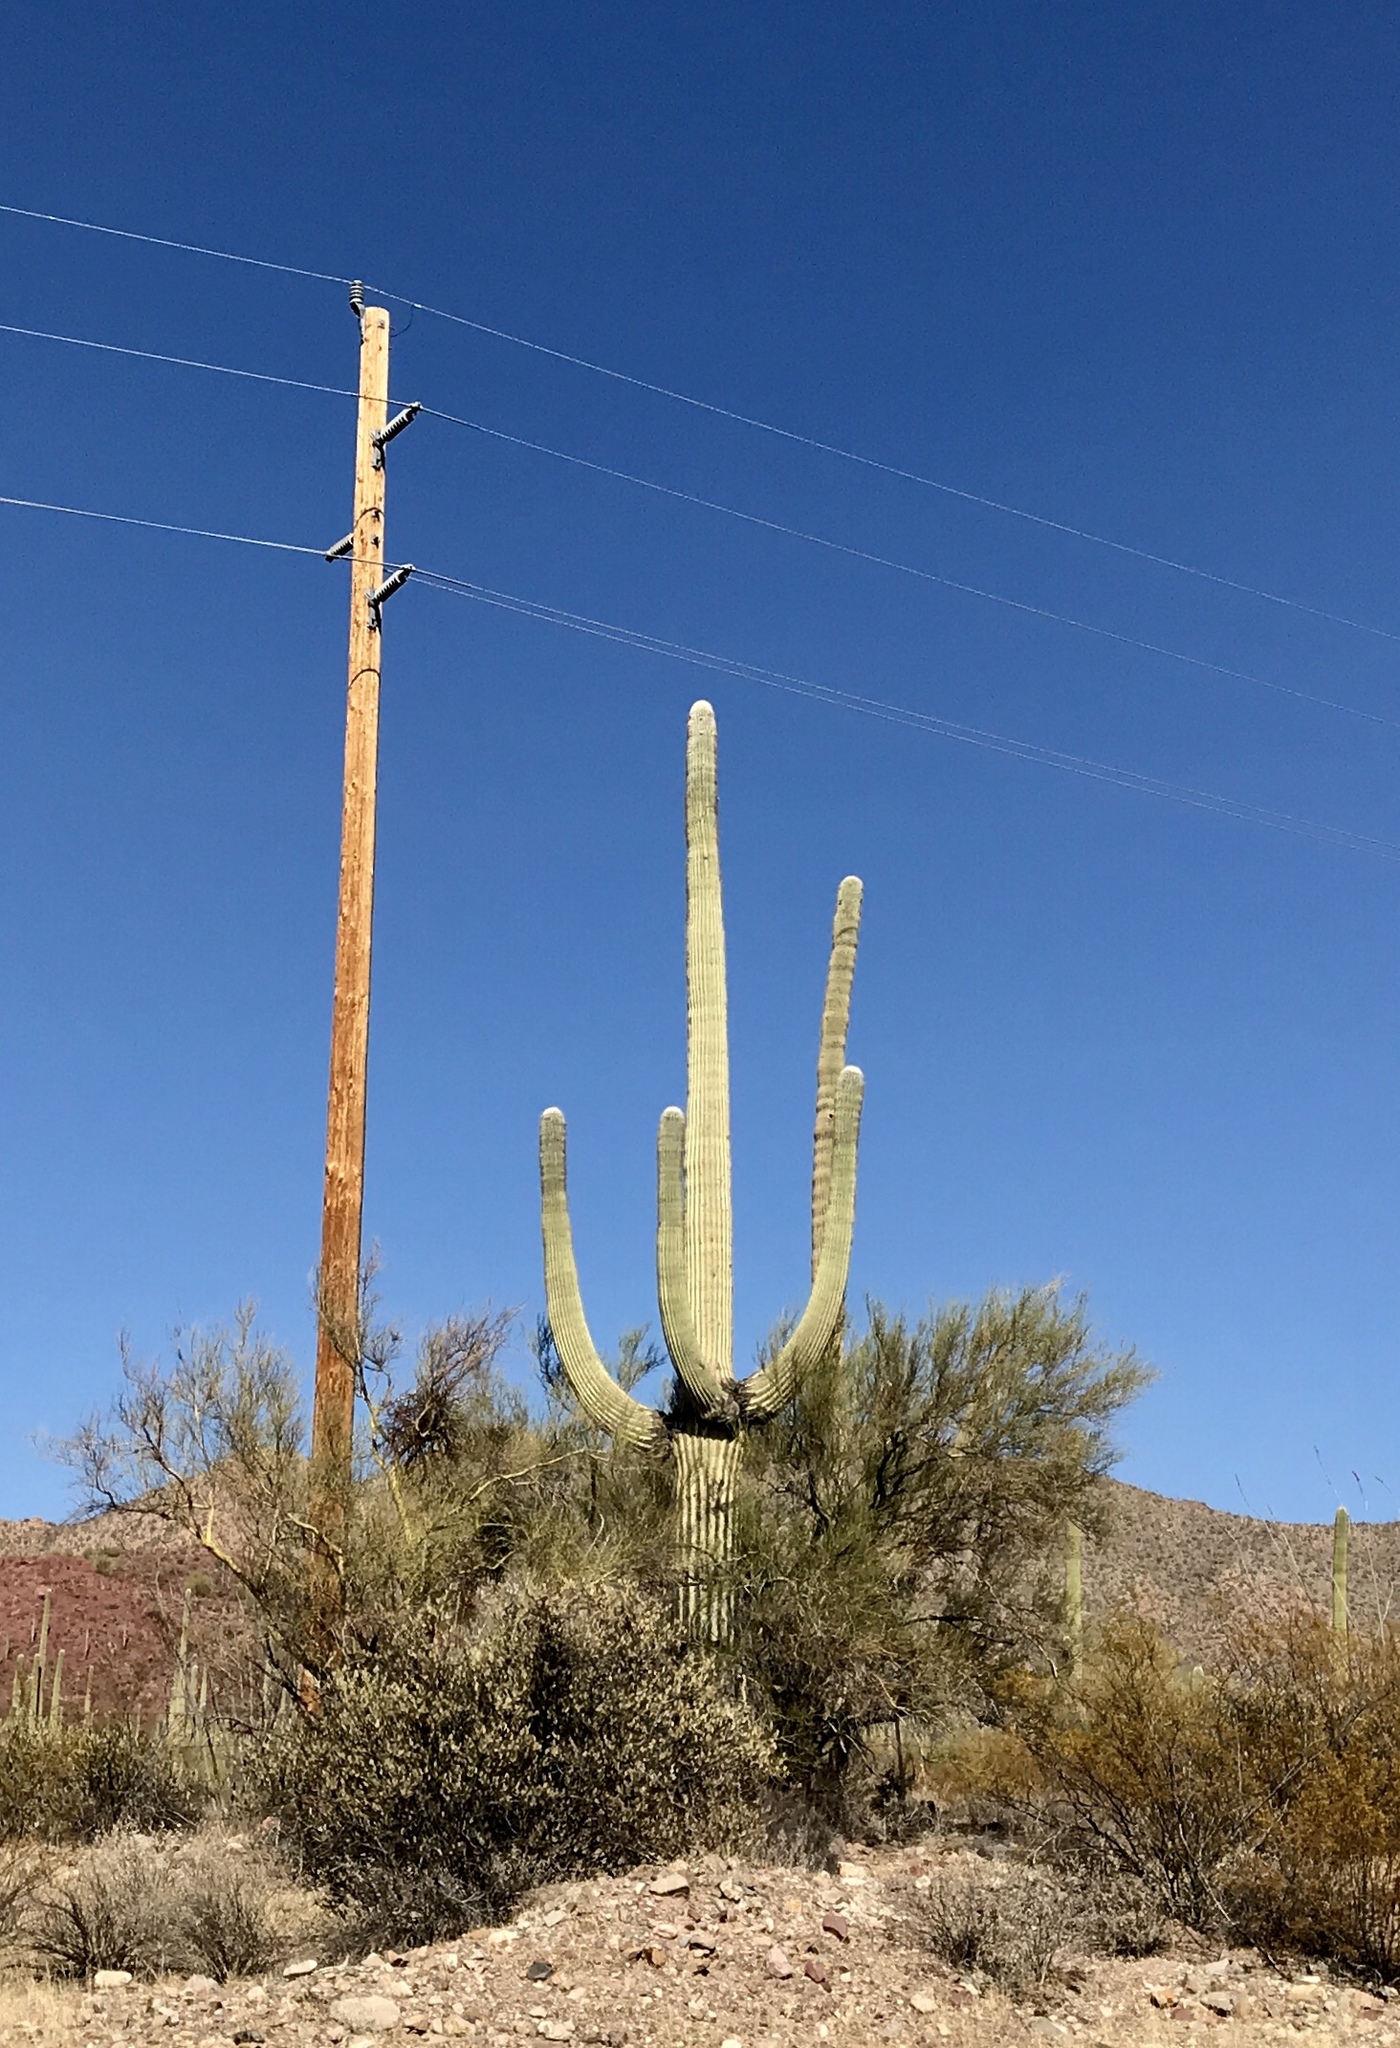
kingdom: Plantae
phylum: Tracheophyta
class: Magnoliopsida
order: Caryophyllales
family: Cactaceae
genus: Carnegiea
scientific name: Carnegiea gigantea
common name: Saguaro
